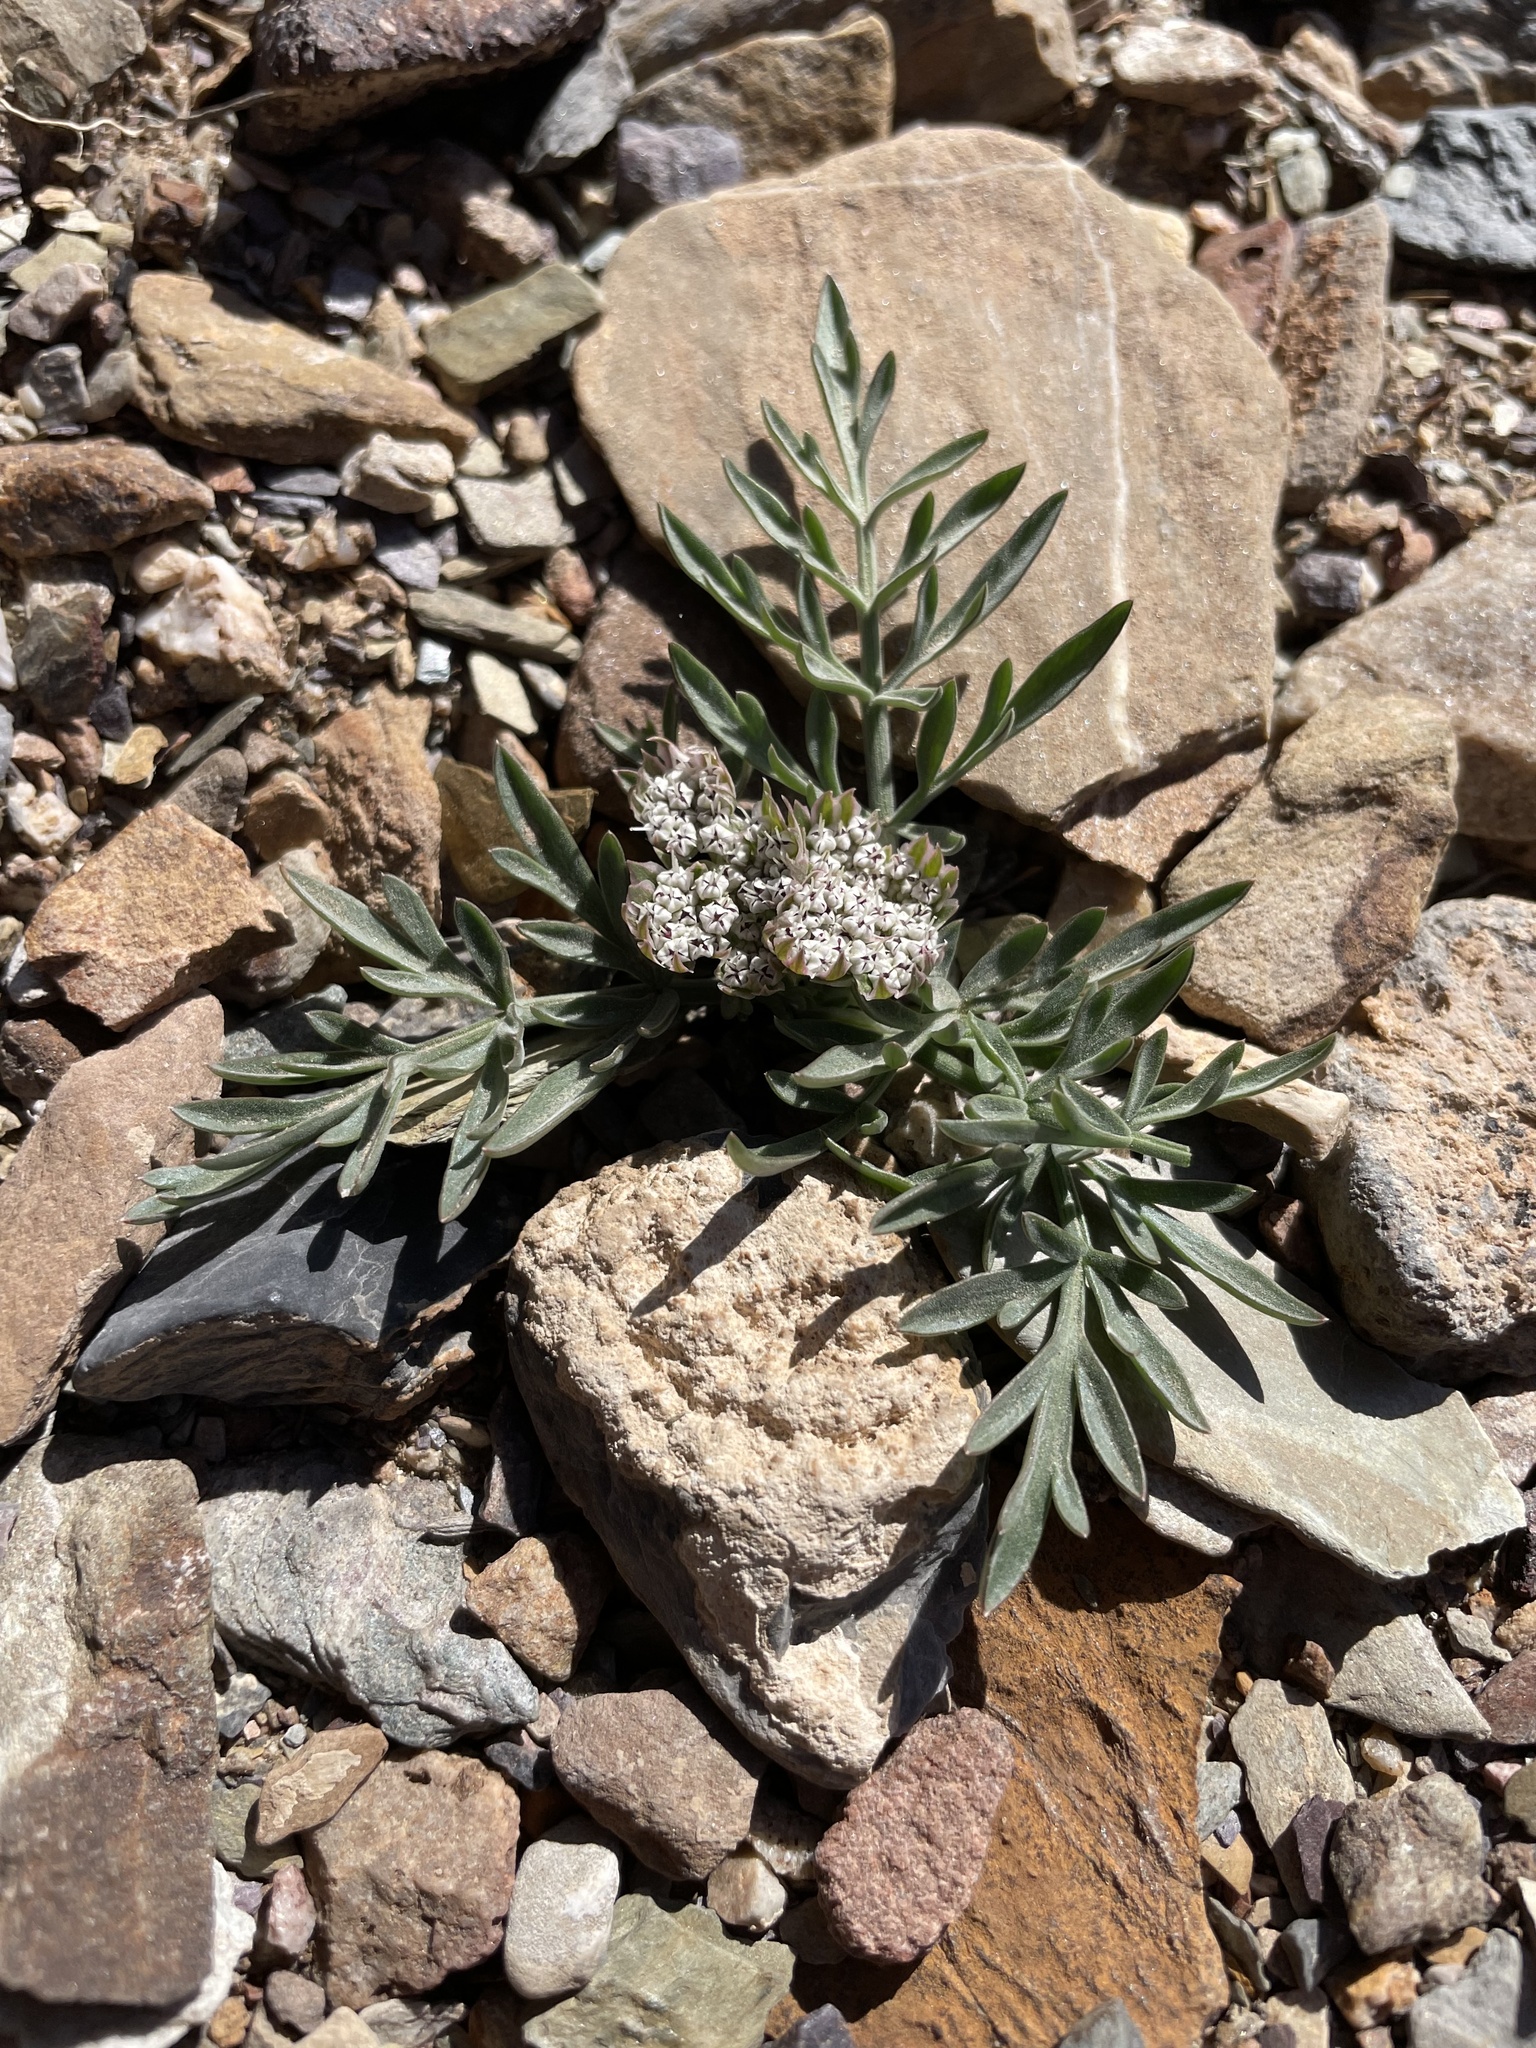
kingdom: Plantae
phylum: Tracheophyta
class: Magnoliopsida
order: Apiales
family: Apiaceae
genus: Lomatium
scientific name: Lomatium nevadense
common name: Nevada lomatium
